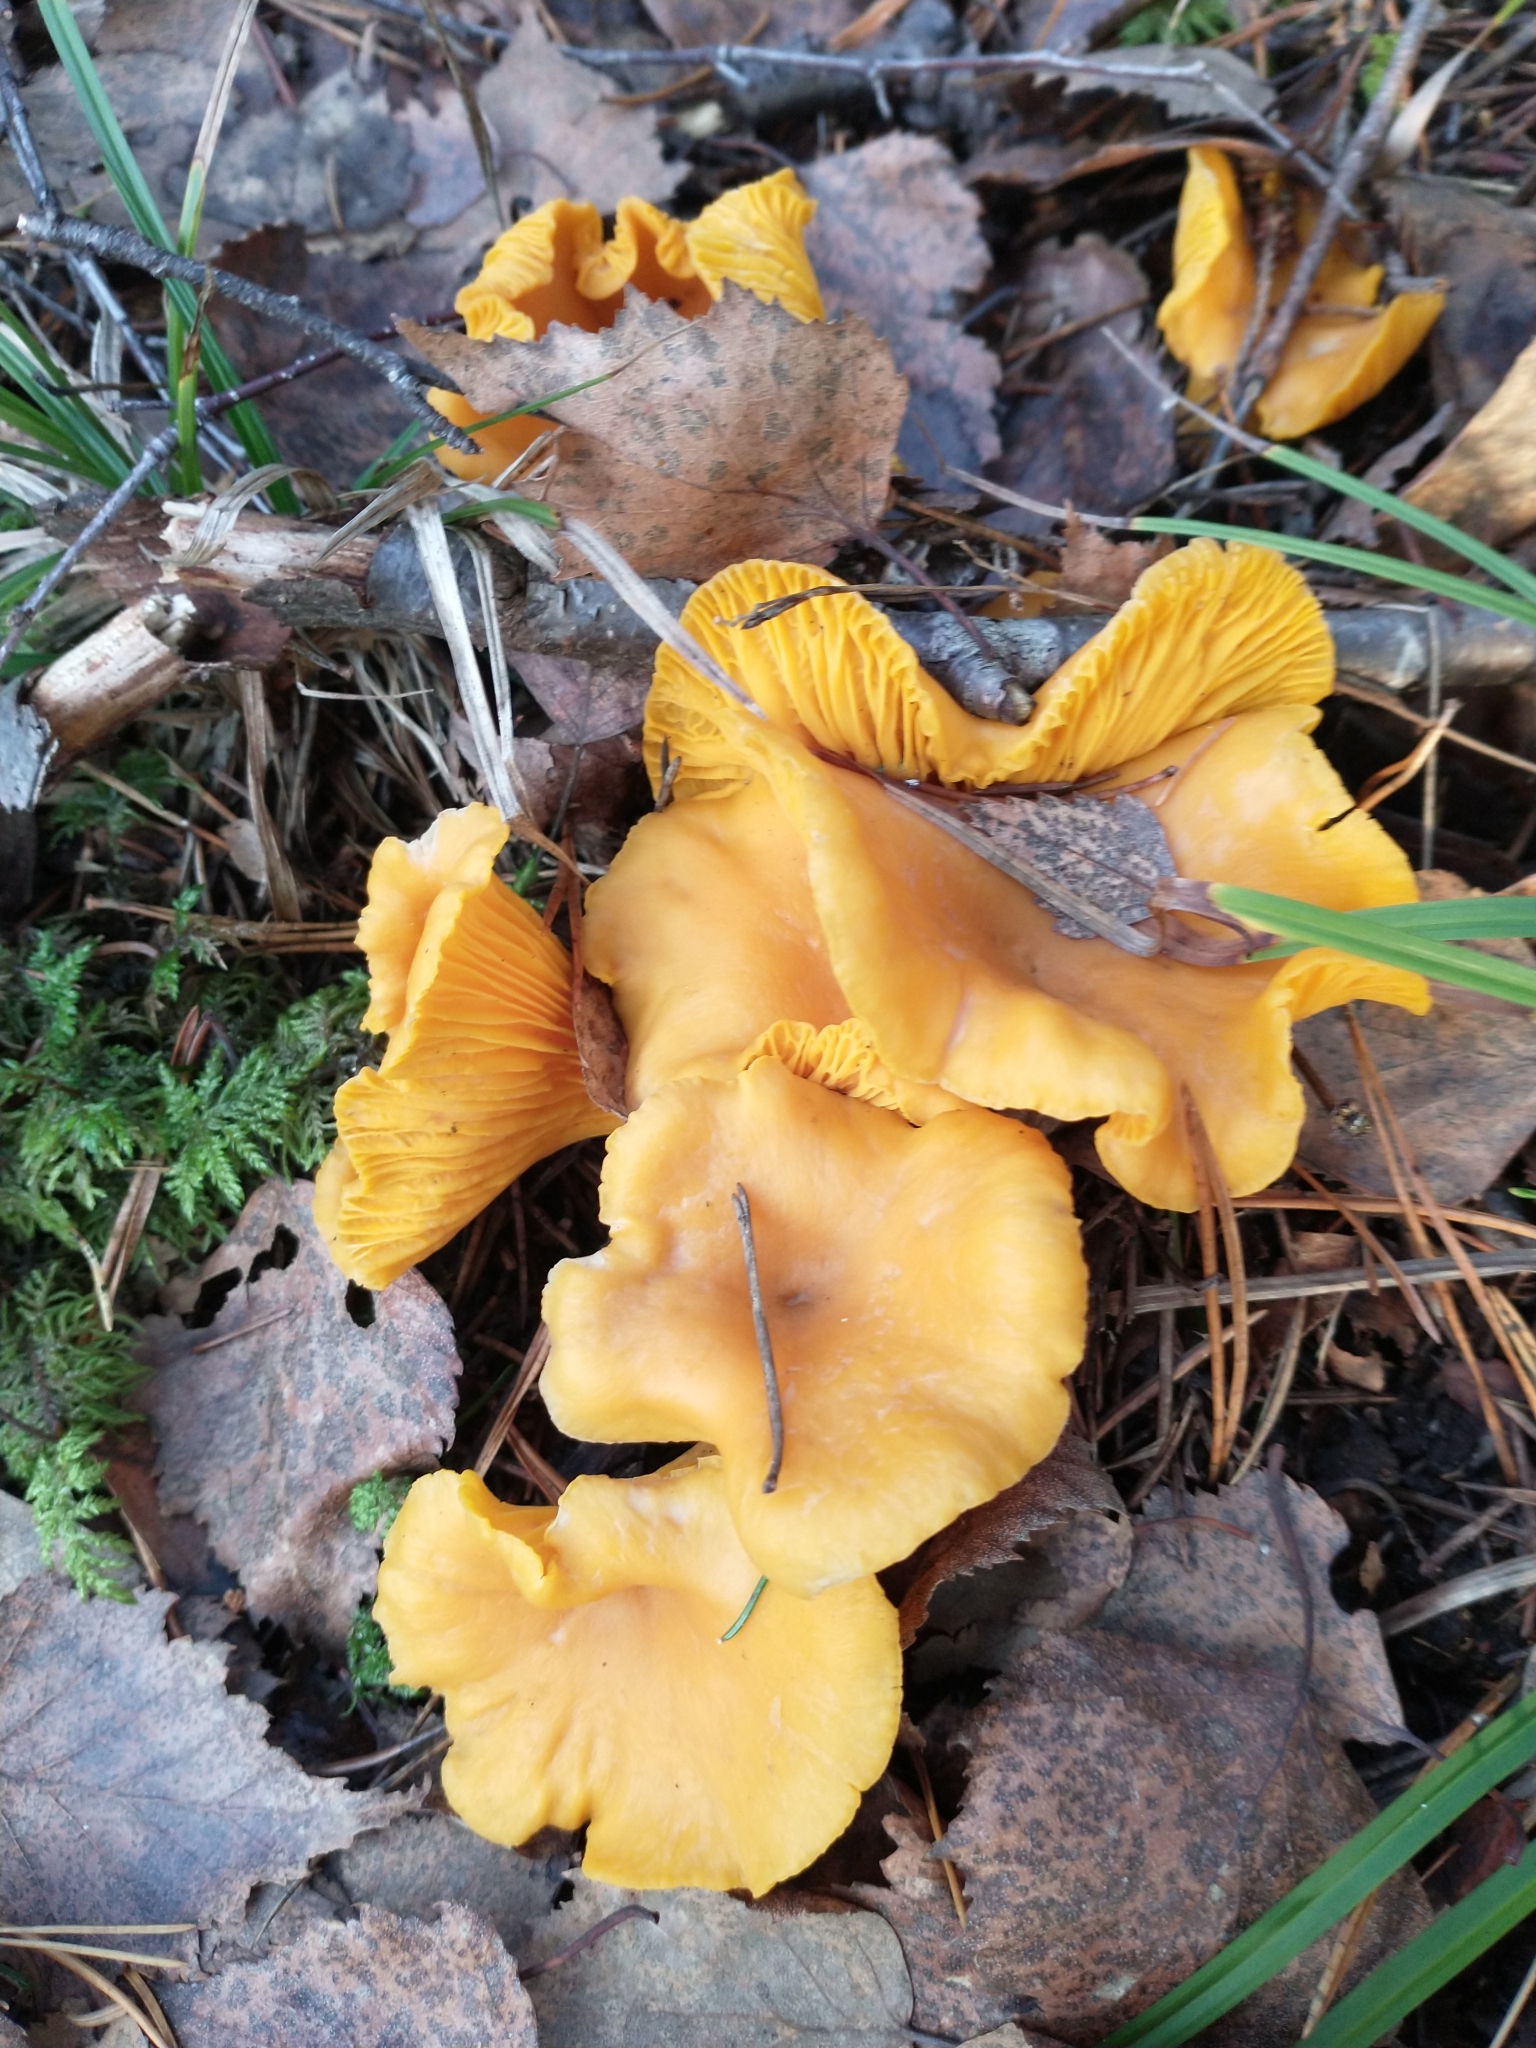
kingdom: Fungi
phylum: Basidiomycota
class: Agaricomycetes
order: Cantharellales
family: Hydnaceae
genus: Cantharellus
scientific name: Cantharellus cibarius
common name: Chanterelle
